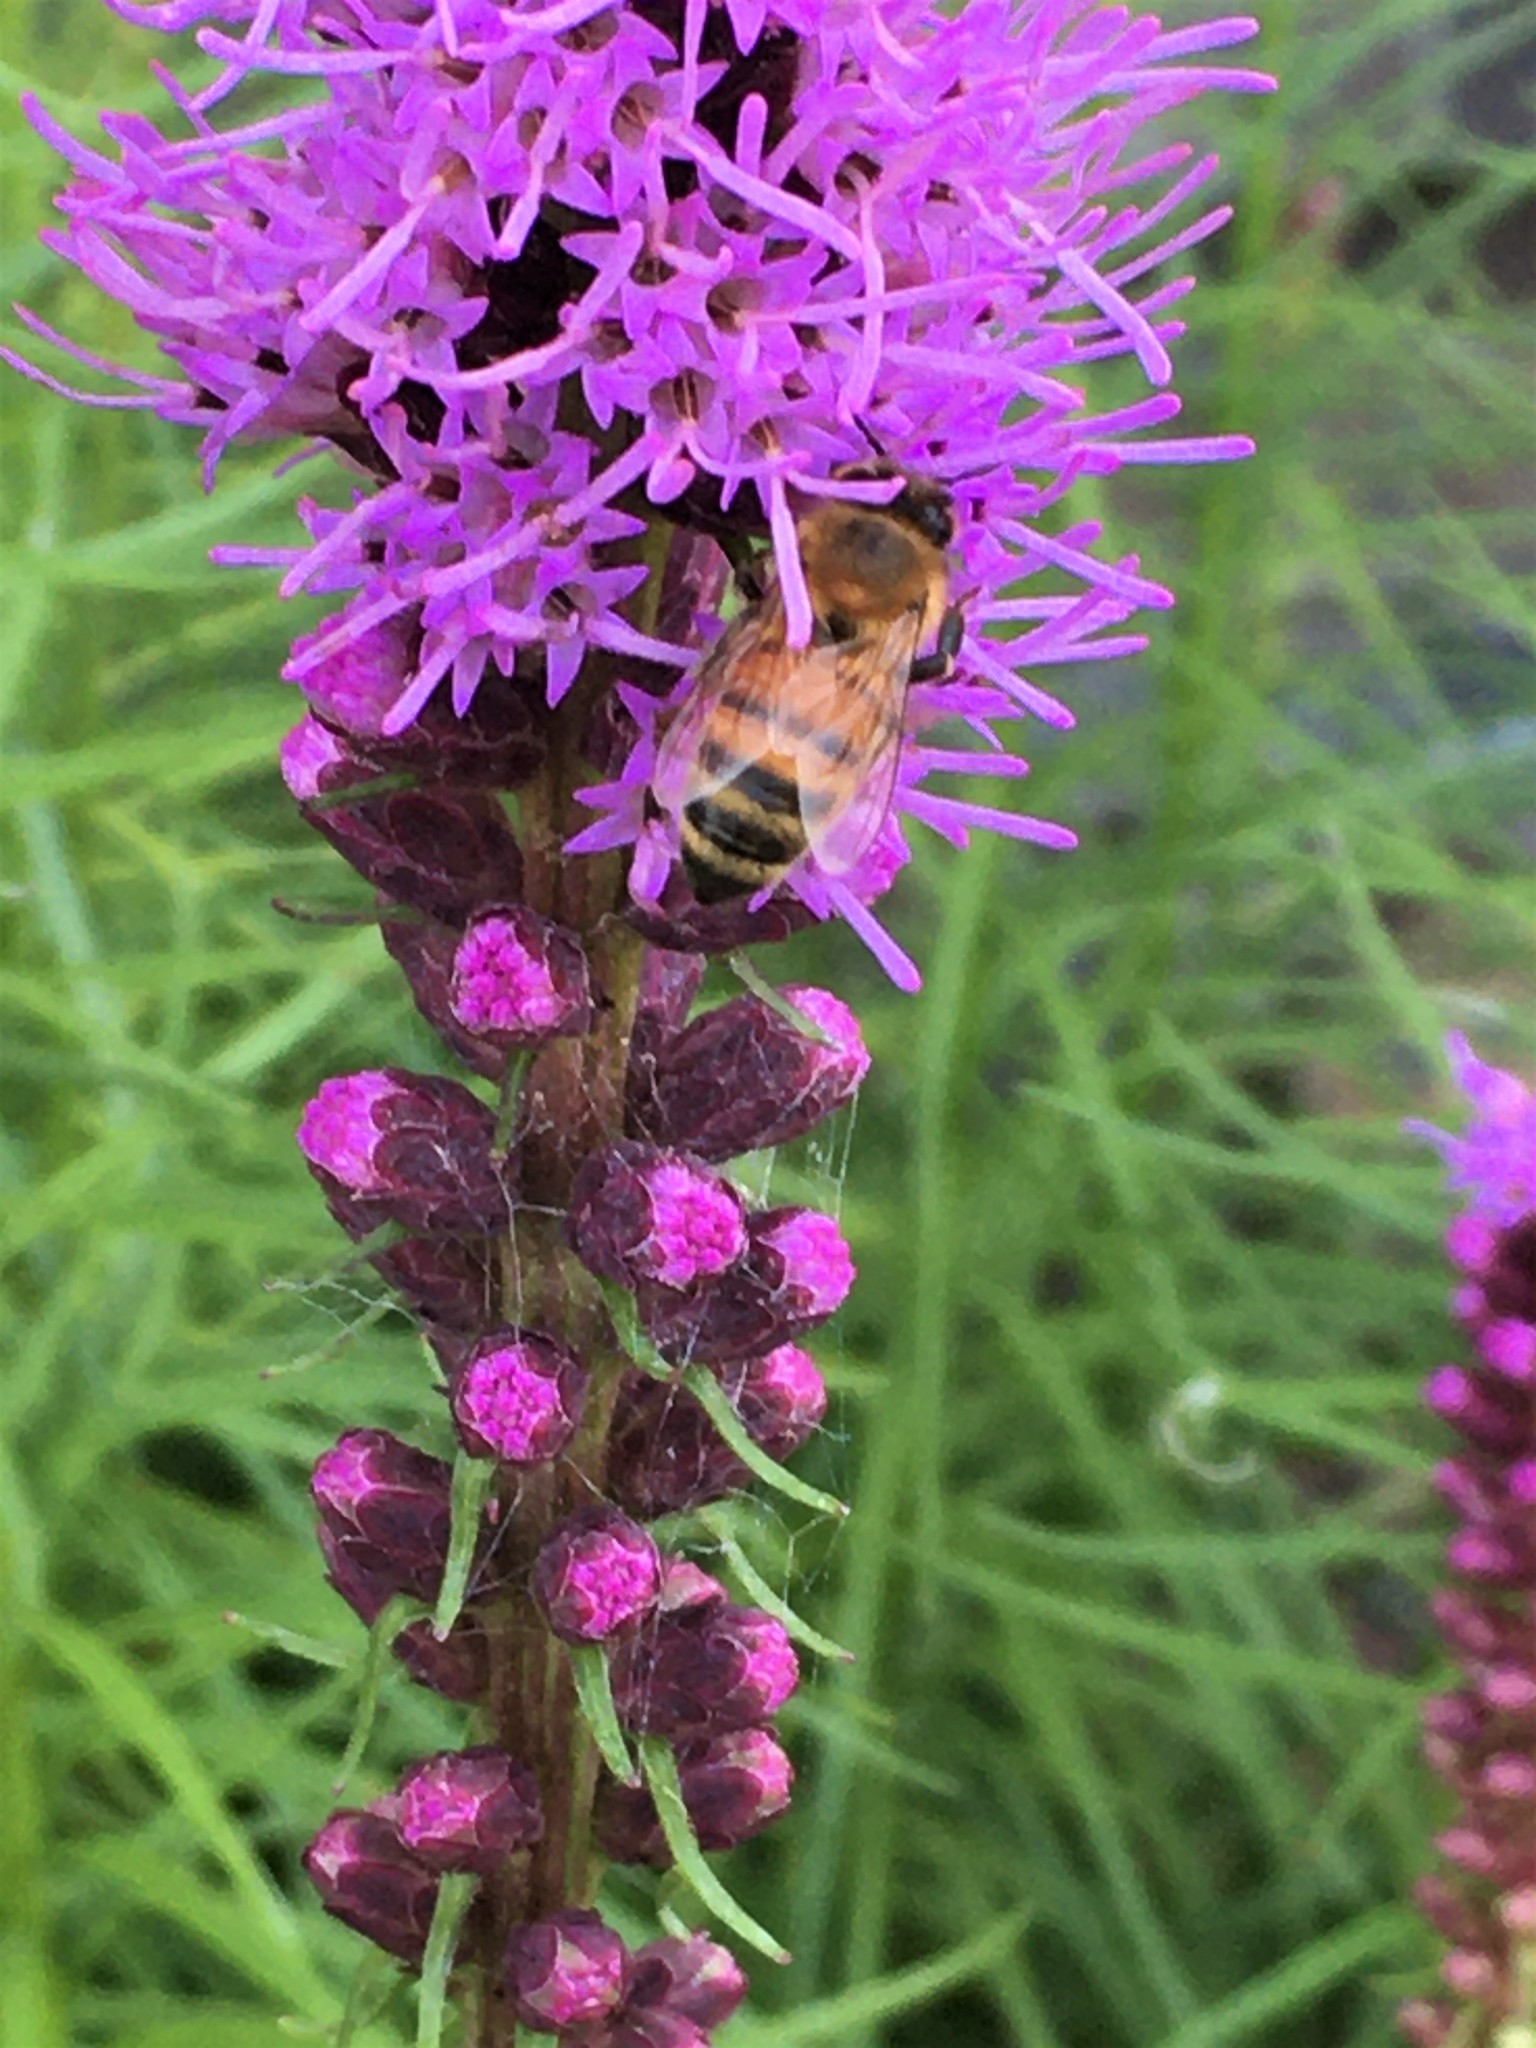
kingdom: Animalia
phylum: Arthropoda
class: Insecta
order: Hymenoptera
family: Apidae
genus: Apis
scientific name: Apis mellifera
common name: Honey bee
